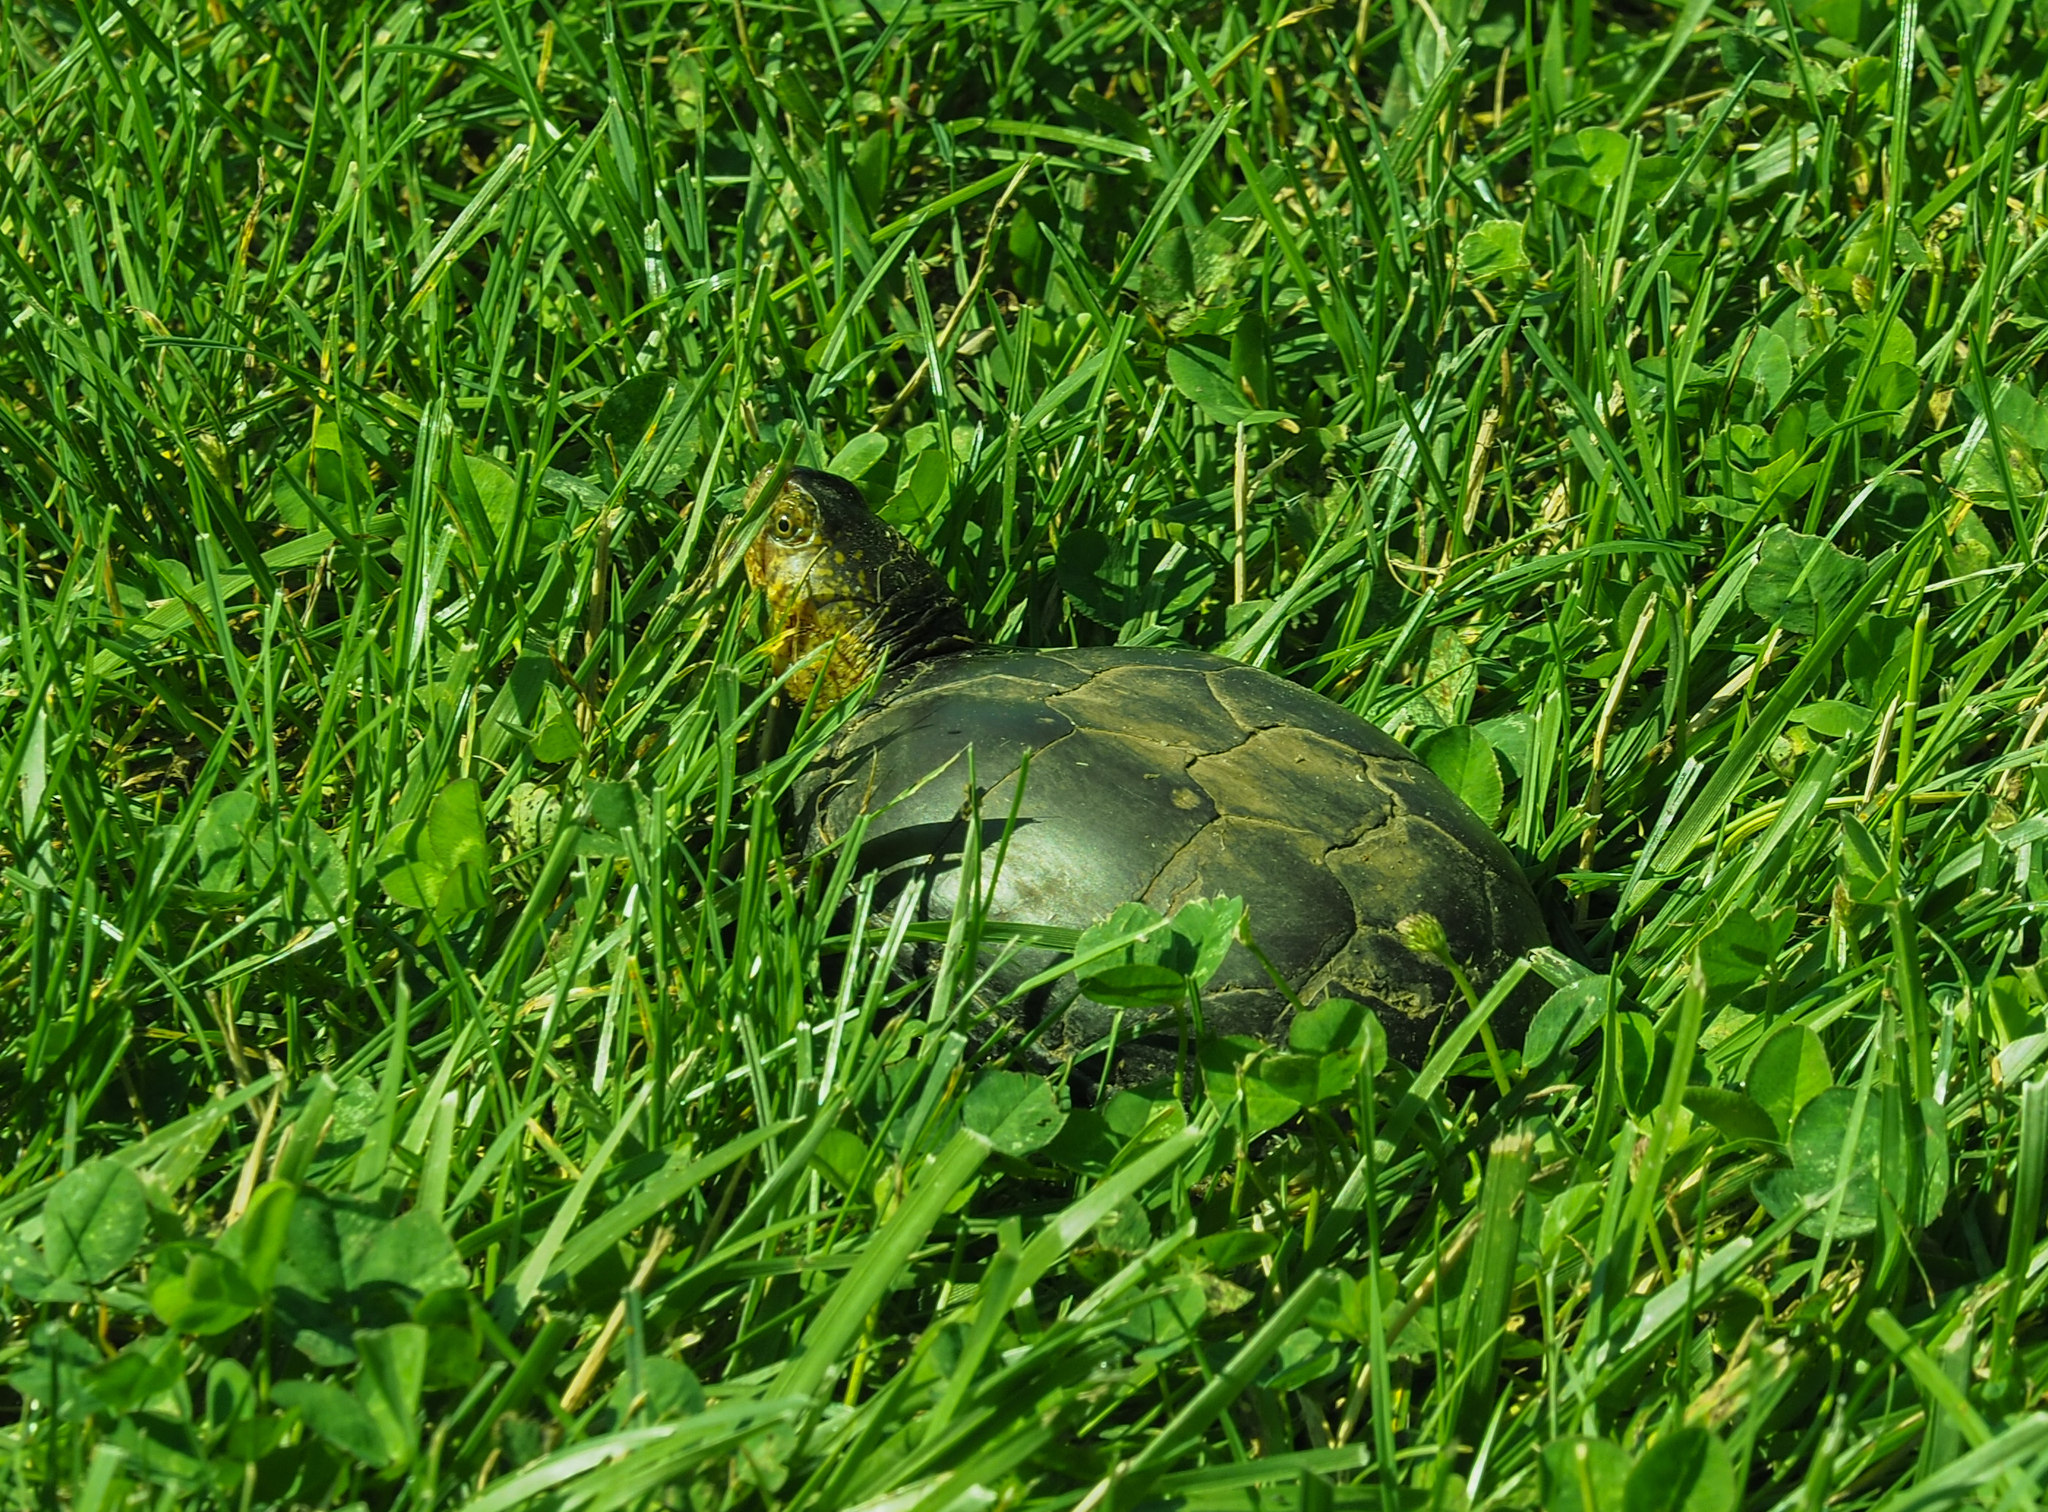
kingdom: Animalia
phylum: Chordata
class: Testudines
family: Kinosternidae
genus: Kinosternon
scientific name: Kinosternon subrubrum
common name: Eastern mud turtle
